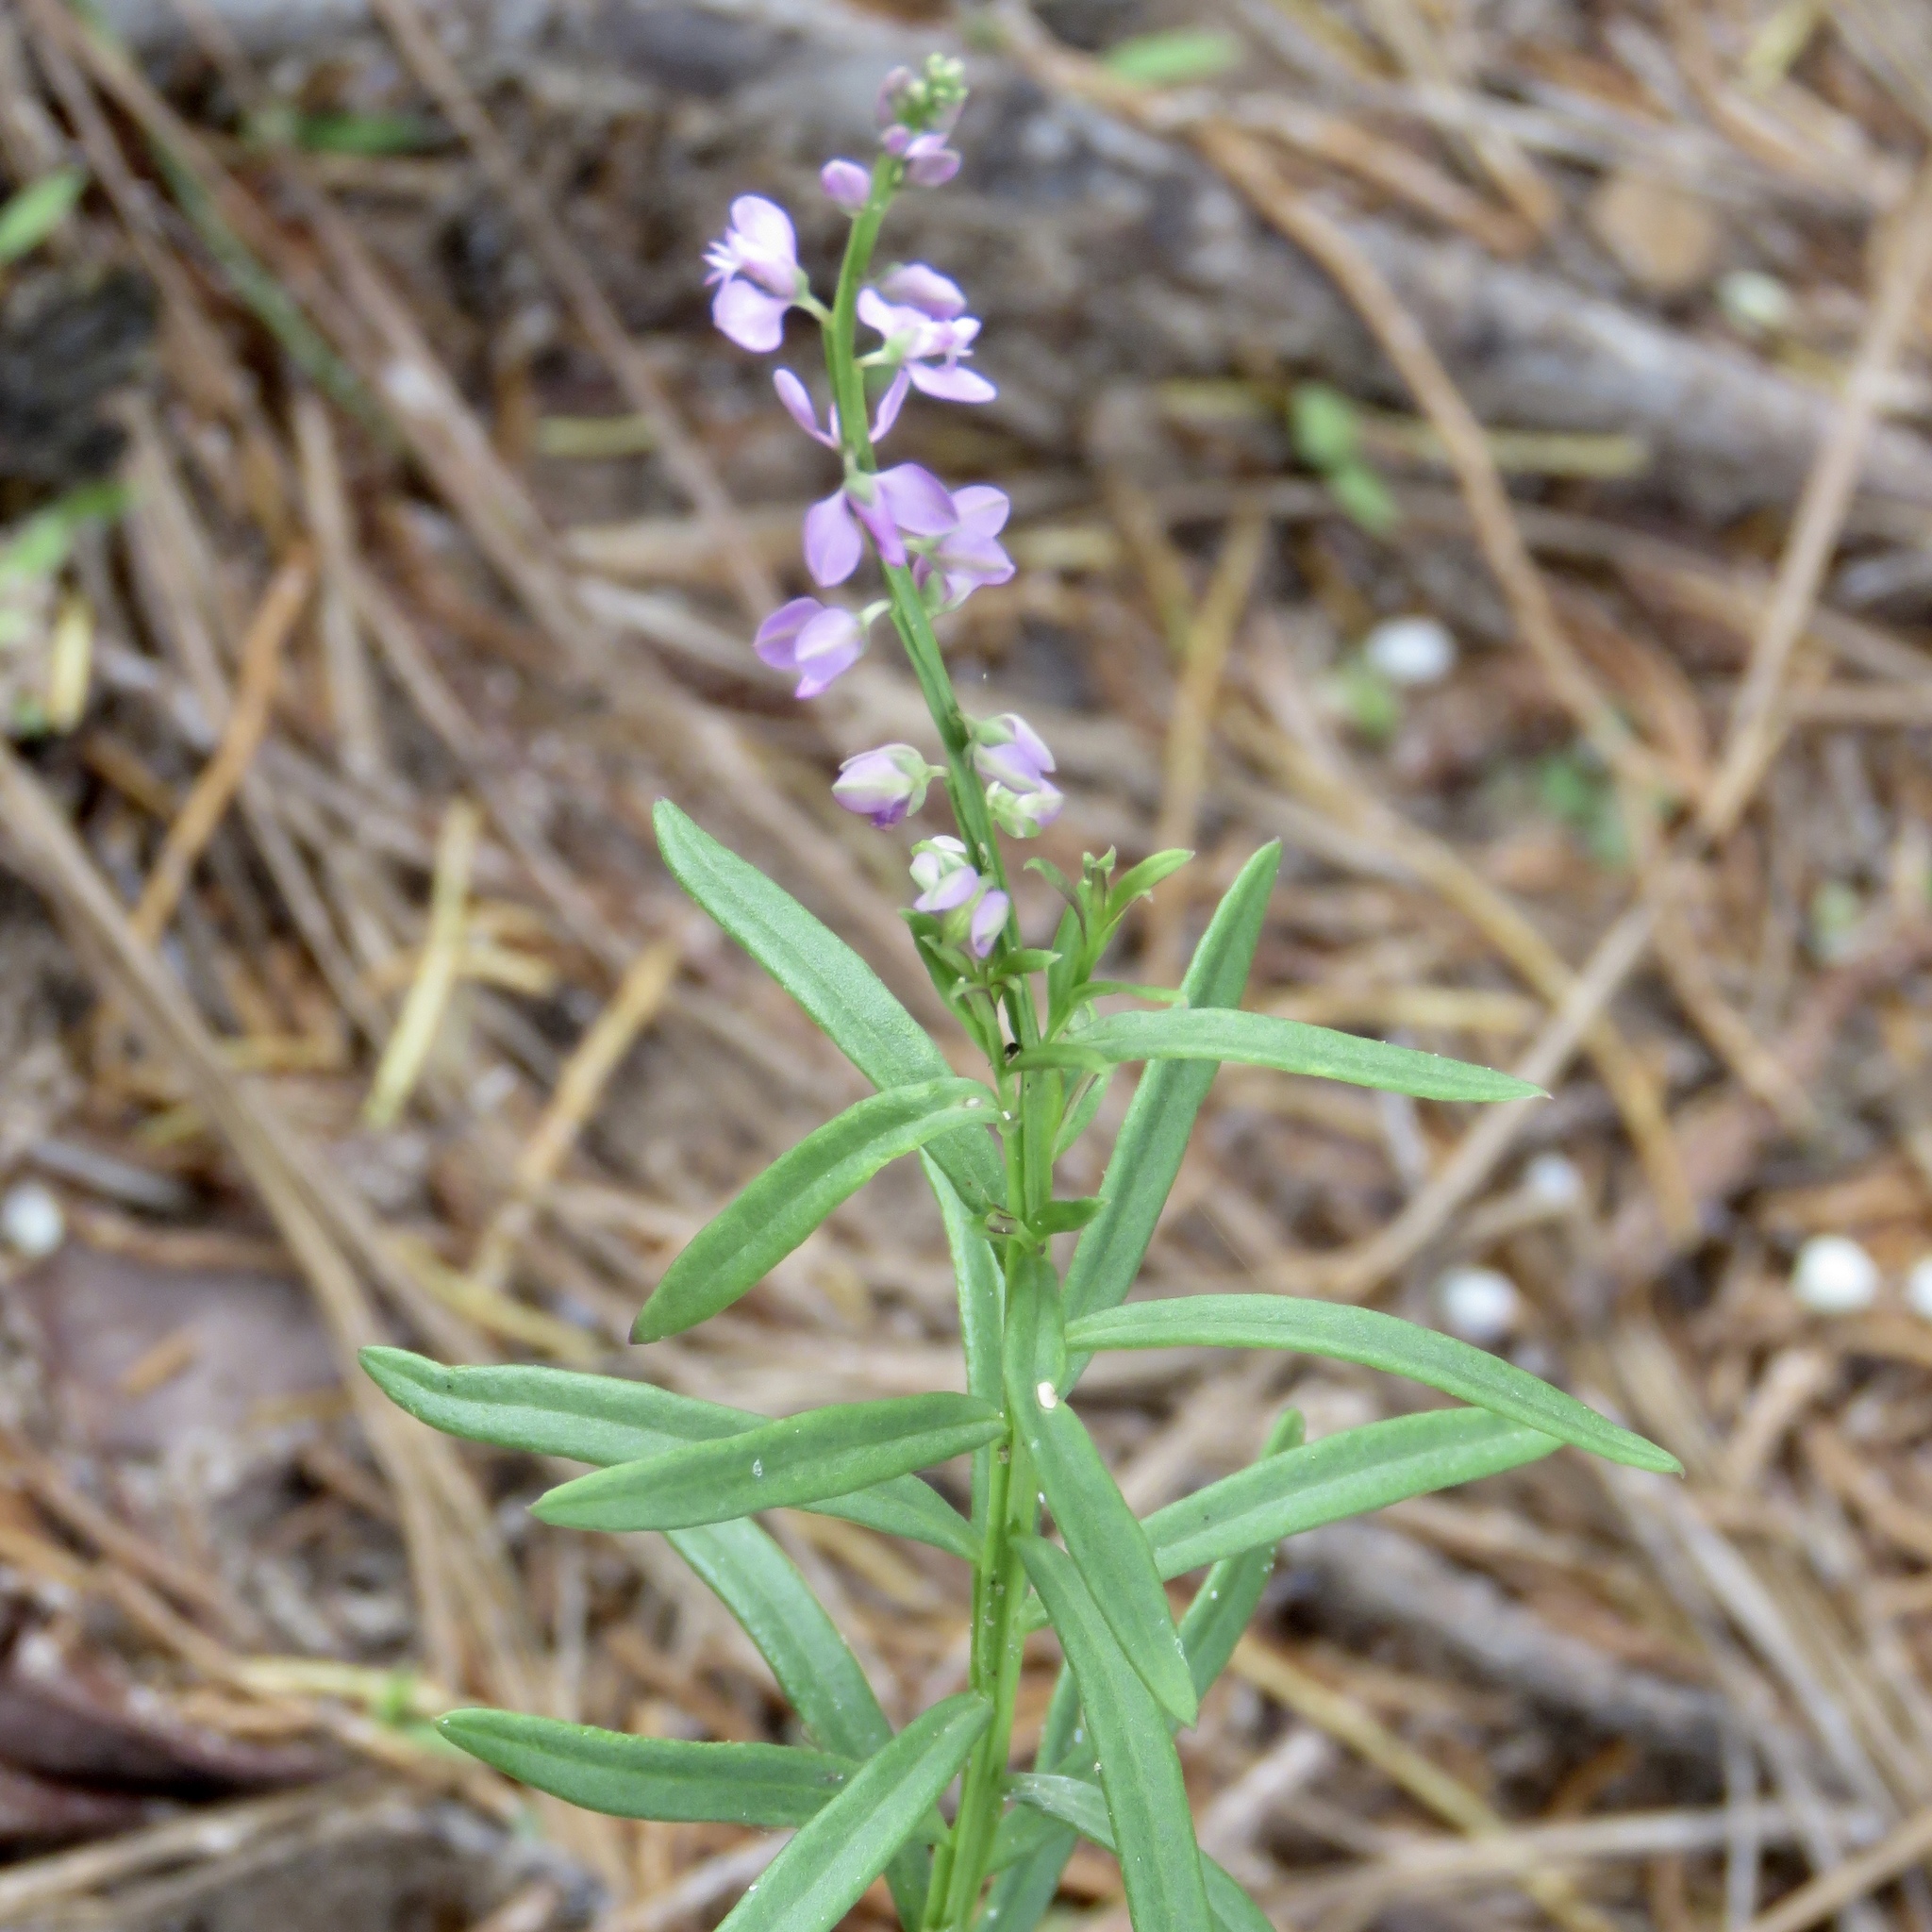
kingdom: Plantae
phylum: Tracheophyta
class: Magnoliopsida
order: Fabales
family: Polygalaceae
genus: Polygala
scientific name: Polygala polygama
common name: Bitter milkwort
